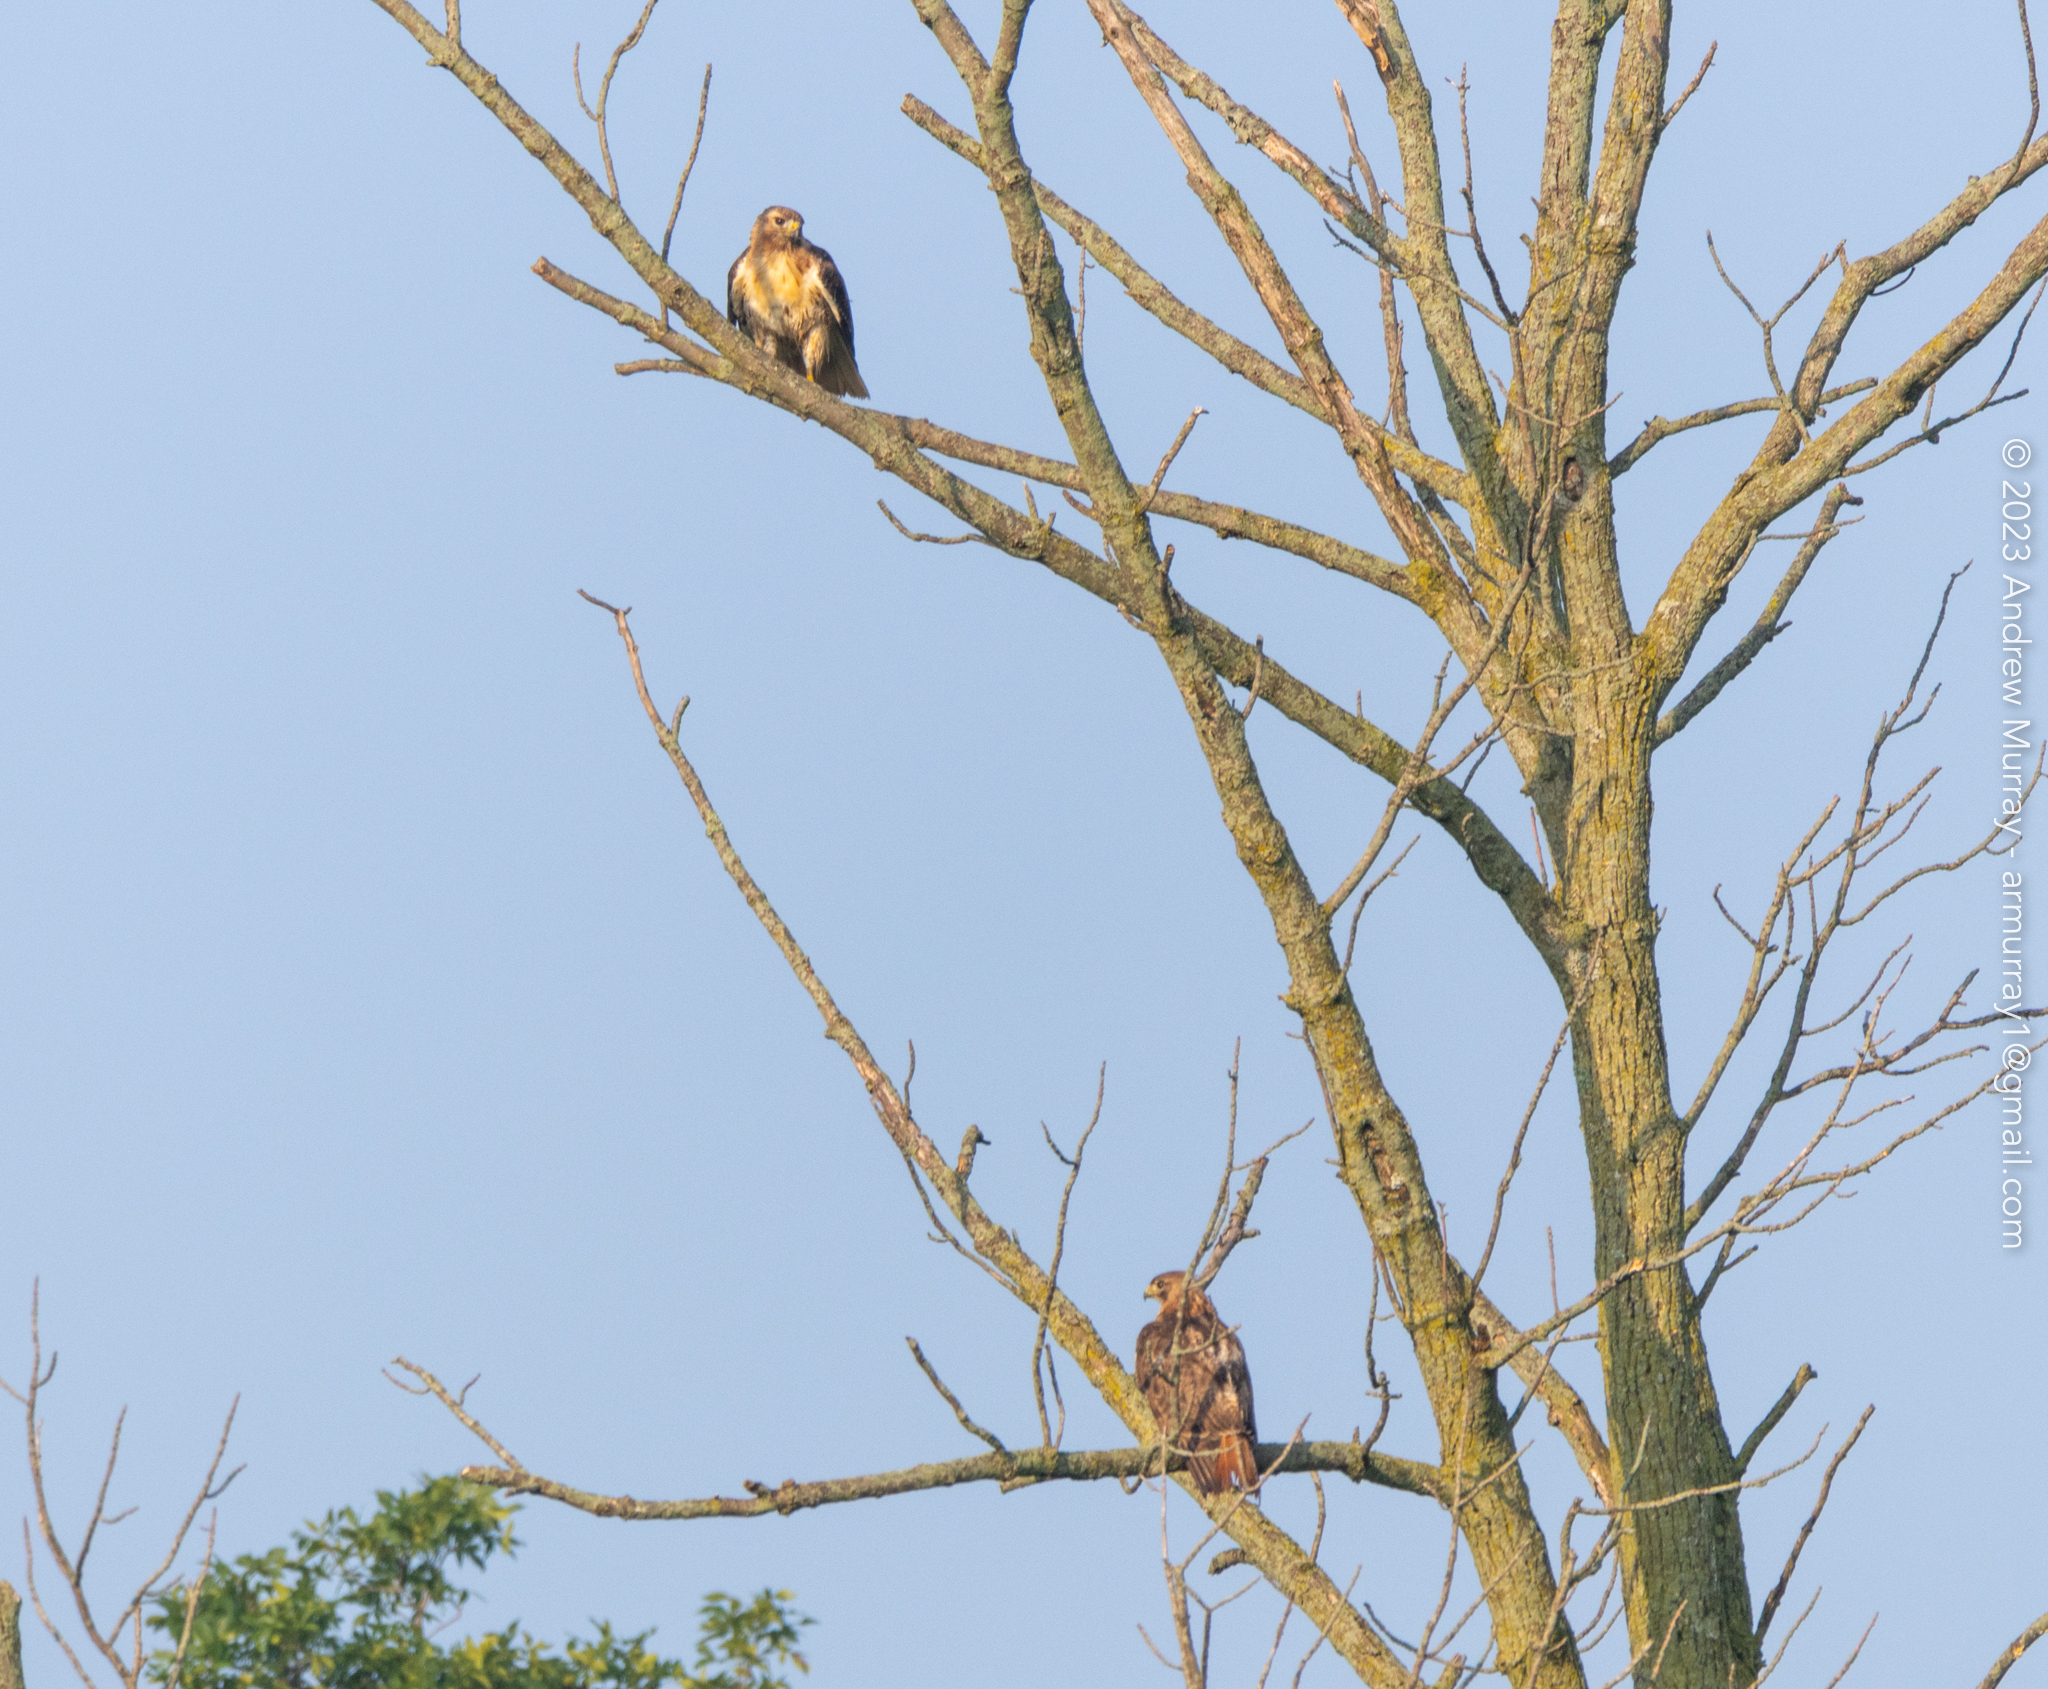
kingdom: Animalia
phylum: Chordata
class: Aves
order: Accipitriformes
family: Accipitridae
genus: Buteo
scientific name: Buteo jamaicensis
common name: Red-tailed hawk
